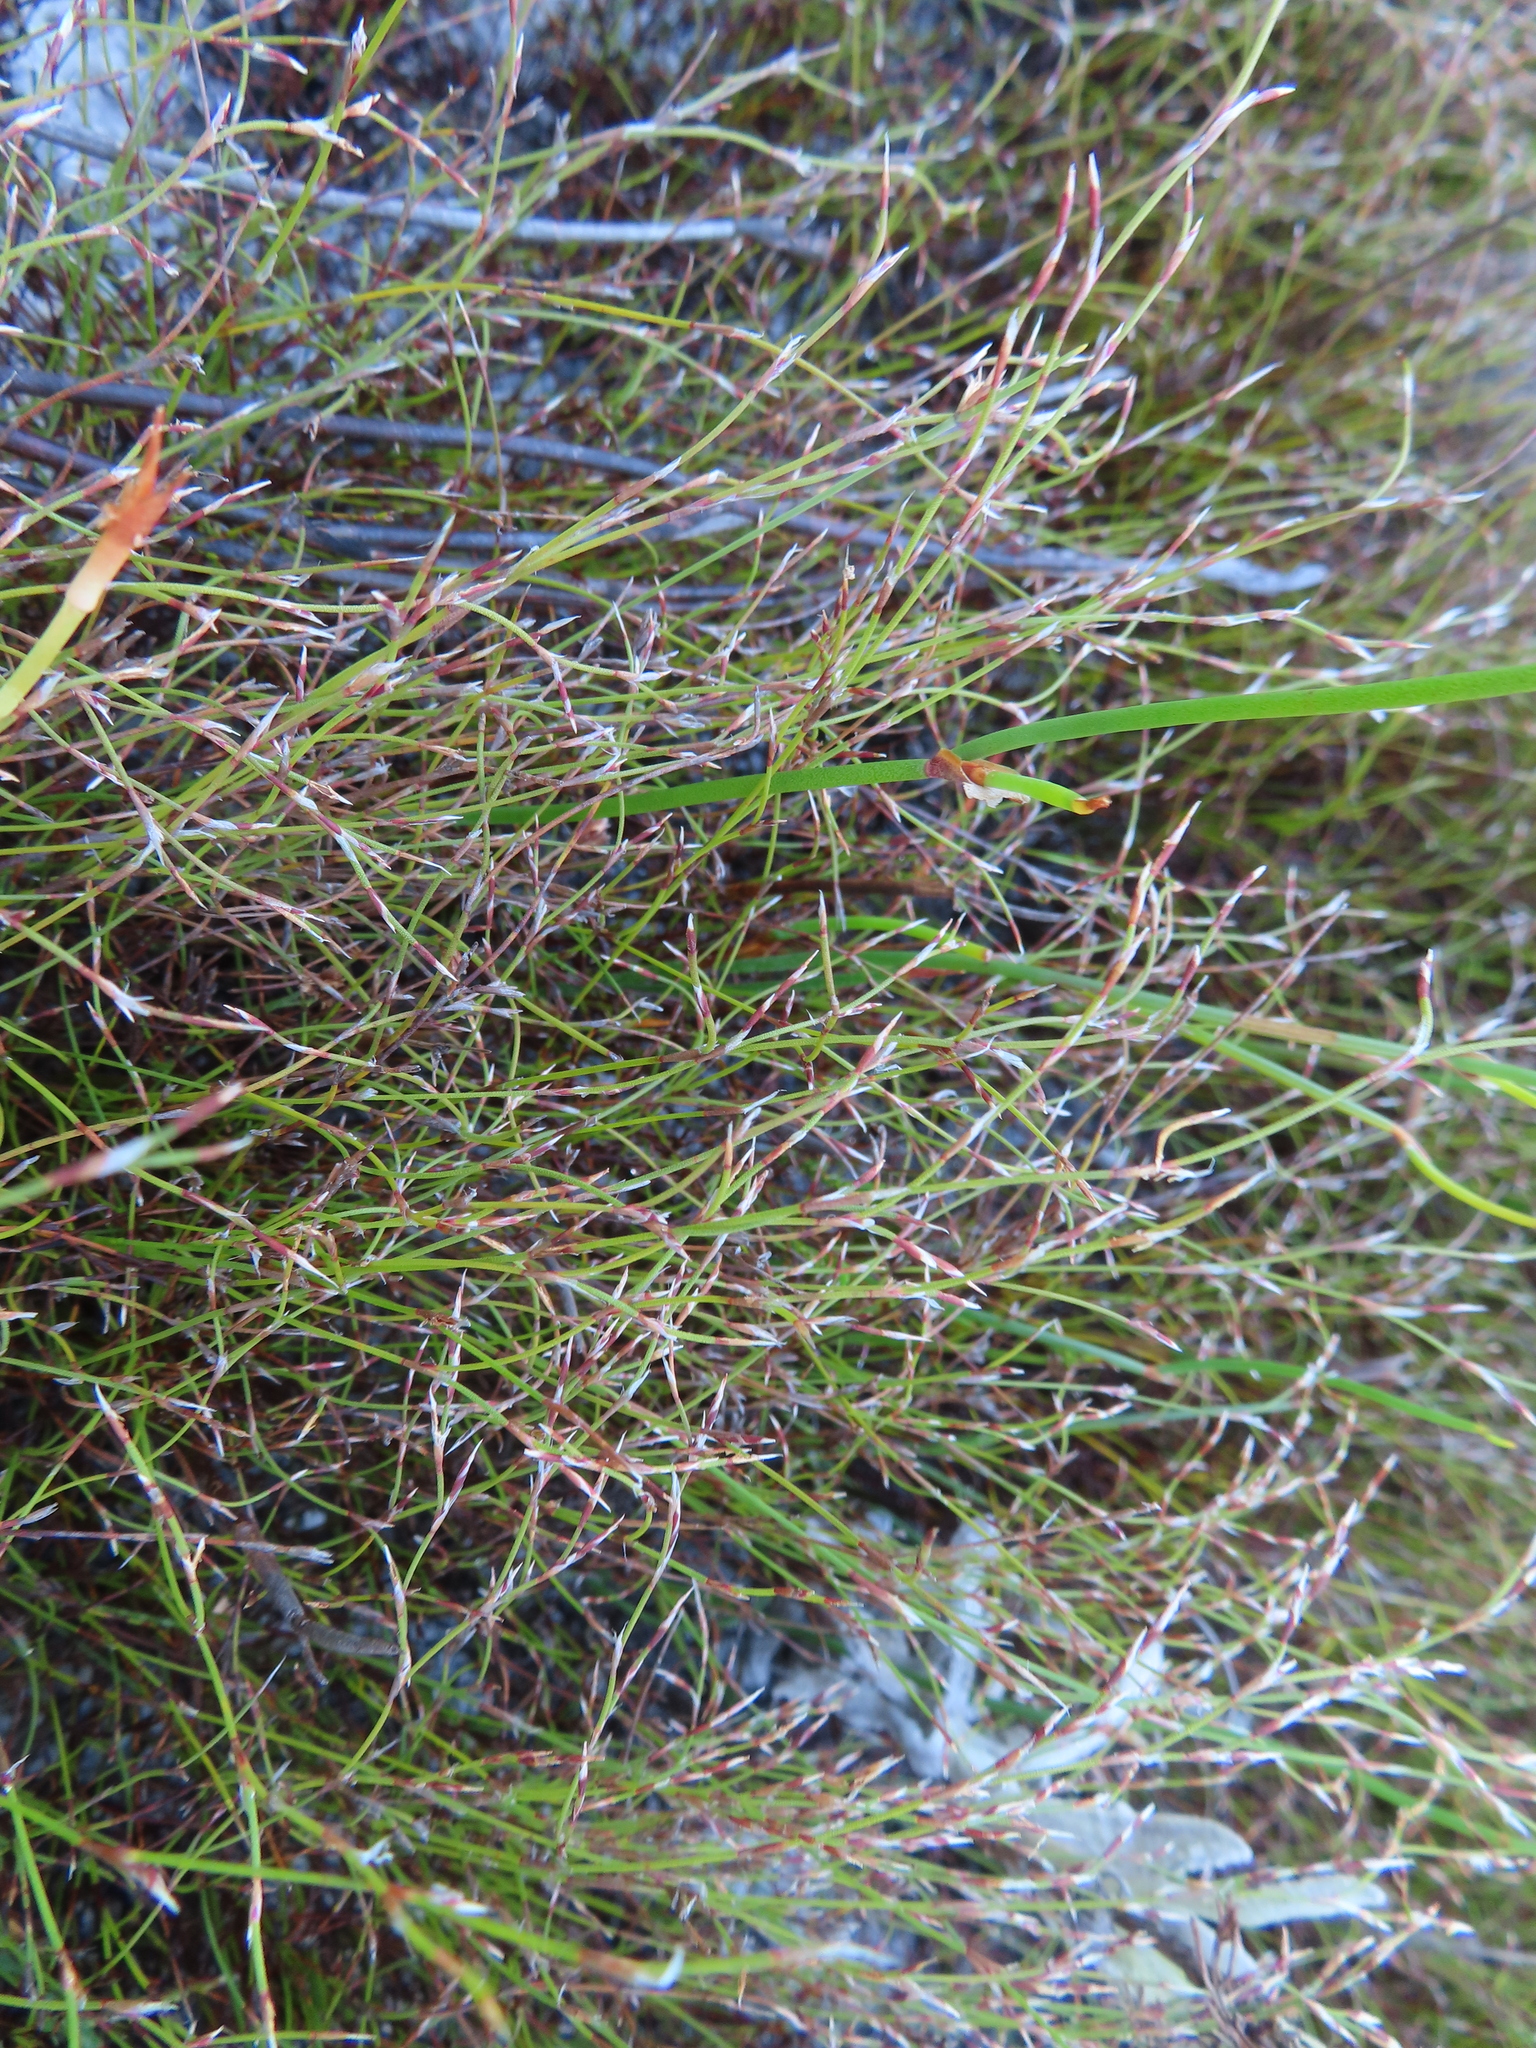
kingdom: Plantae
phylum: Tracheophyta
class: Liliopsida
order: Poales
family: Restionaceae
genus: Restio
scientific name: Restio versatilis
